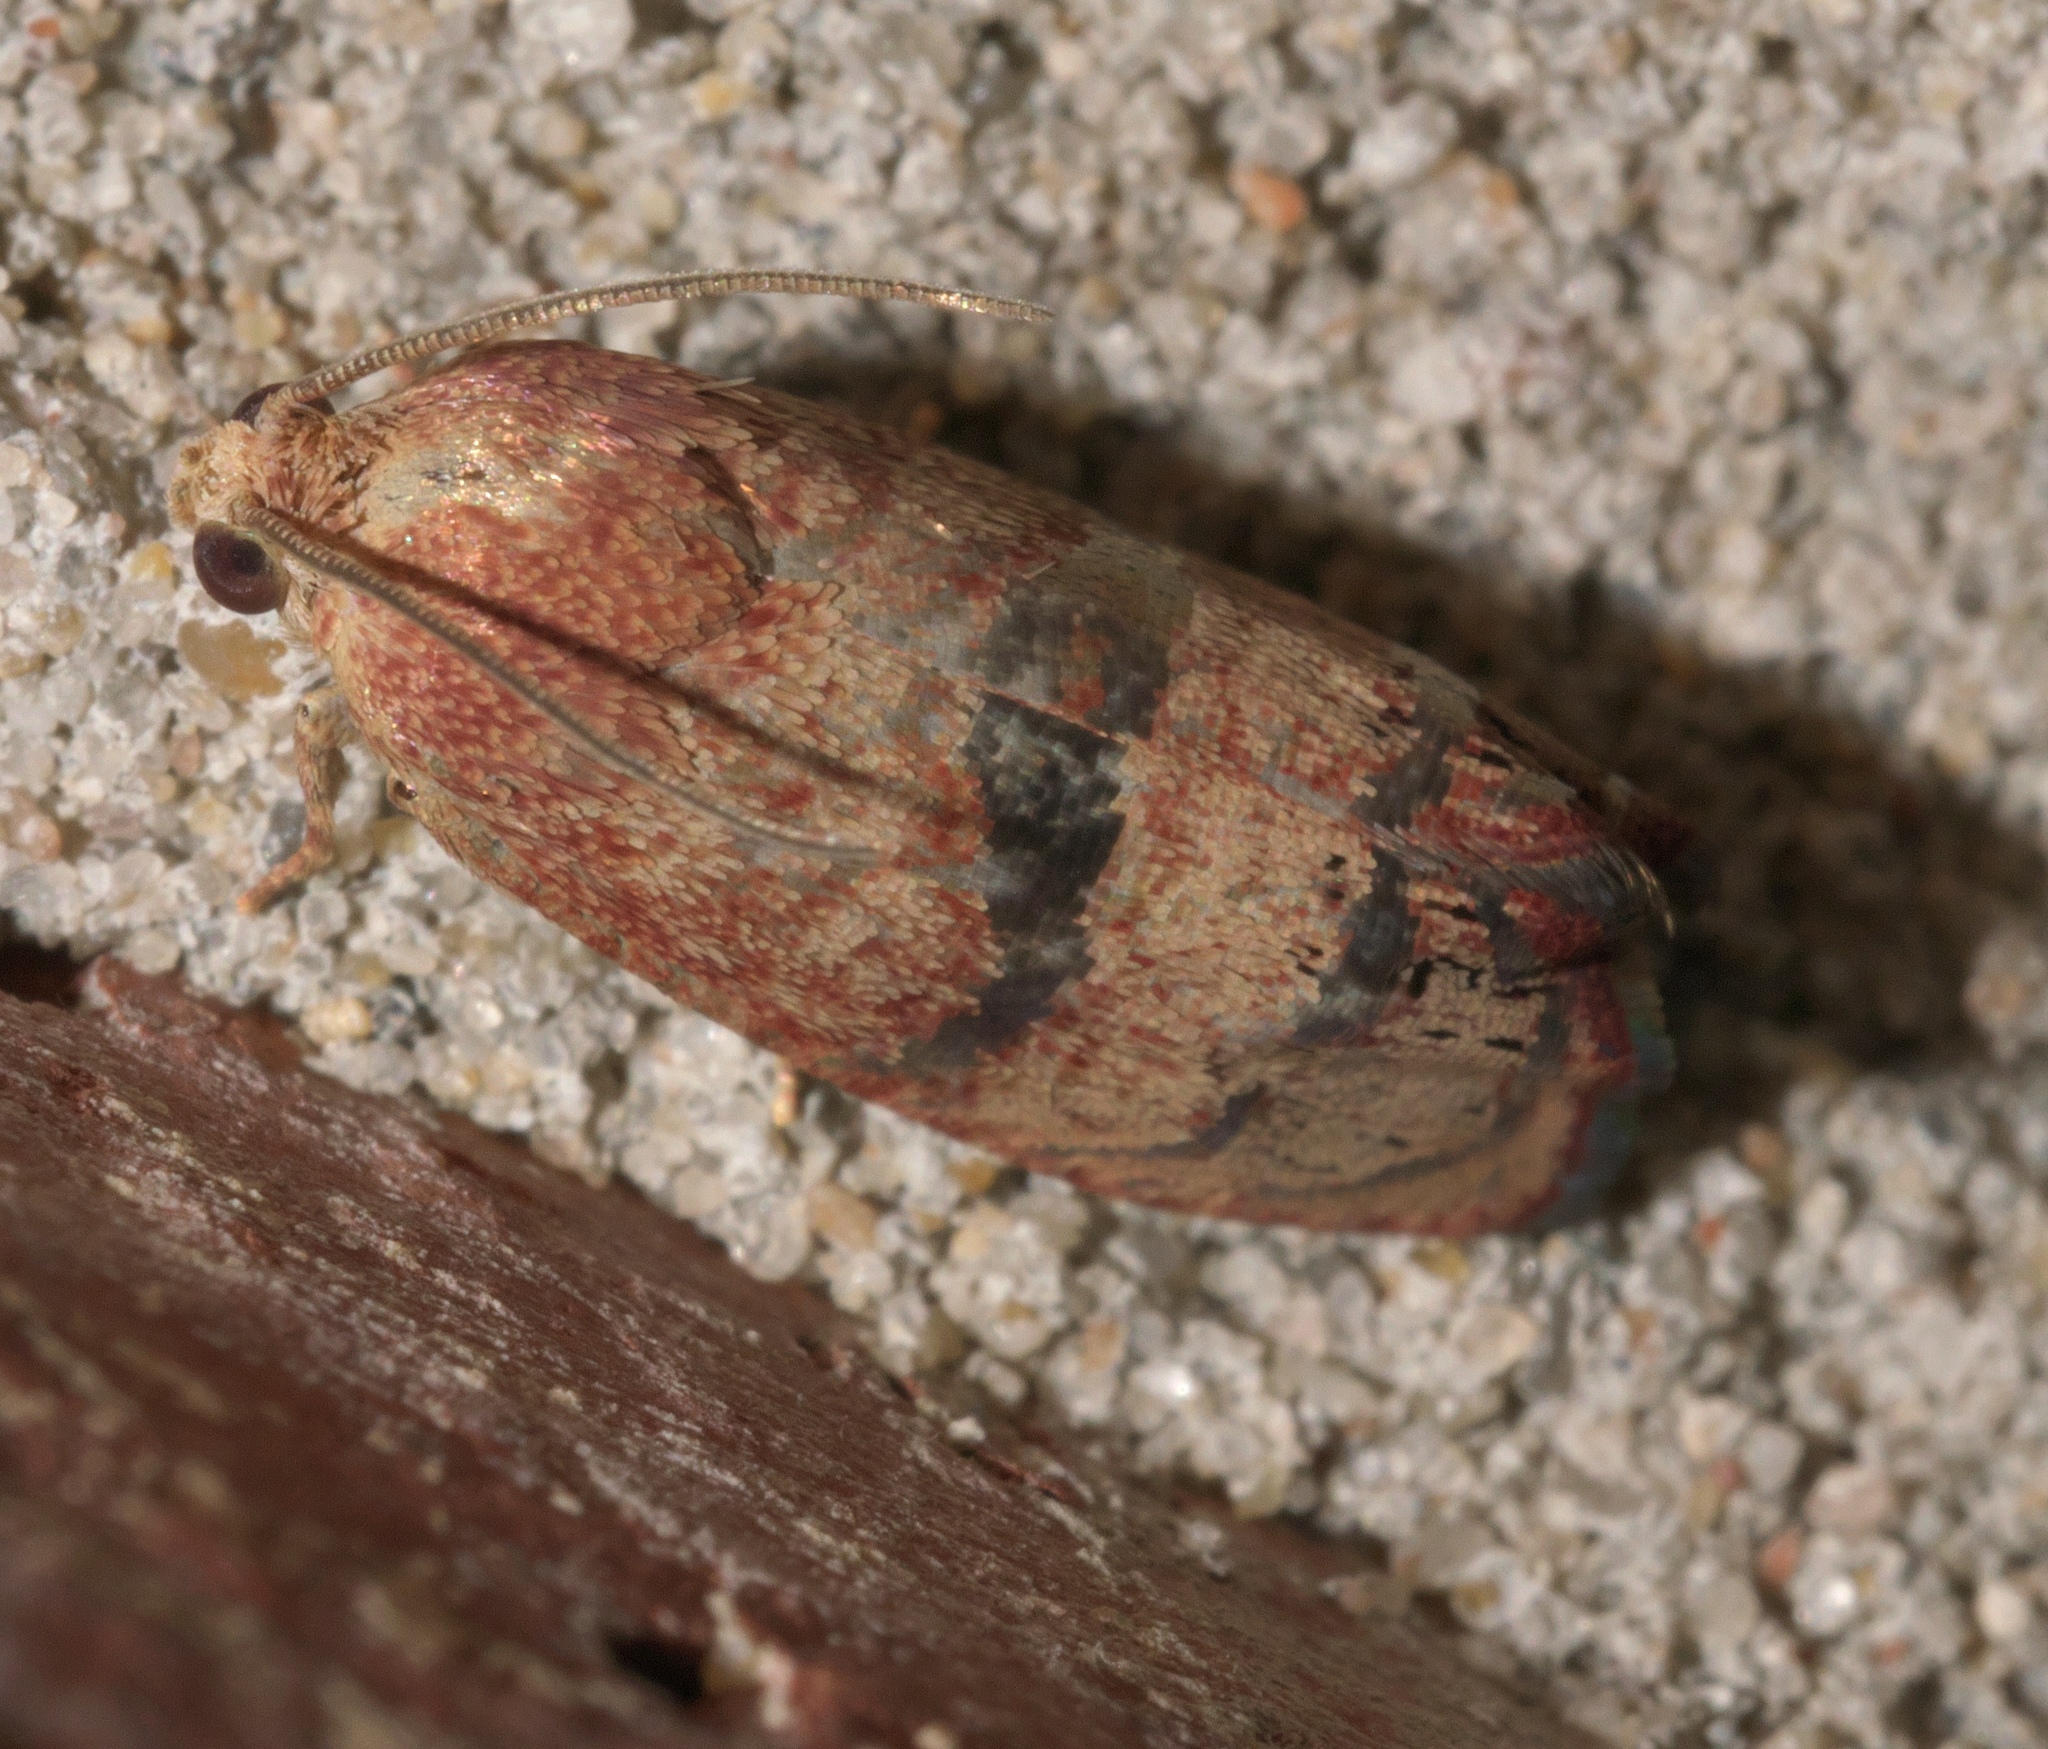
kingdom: Animalia
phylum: Arthropoda
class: Insecta
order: Lepidoptera
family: Tortricidae
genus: Cydia
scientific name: Cydia latiferreana
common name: Filbertworm moth
